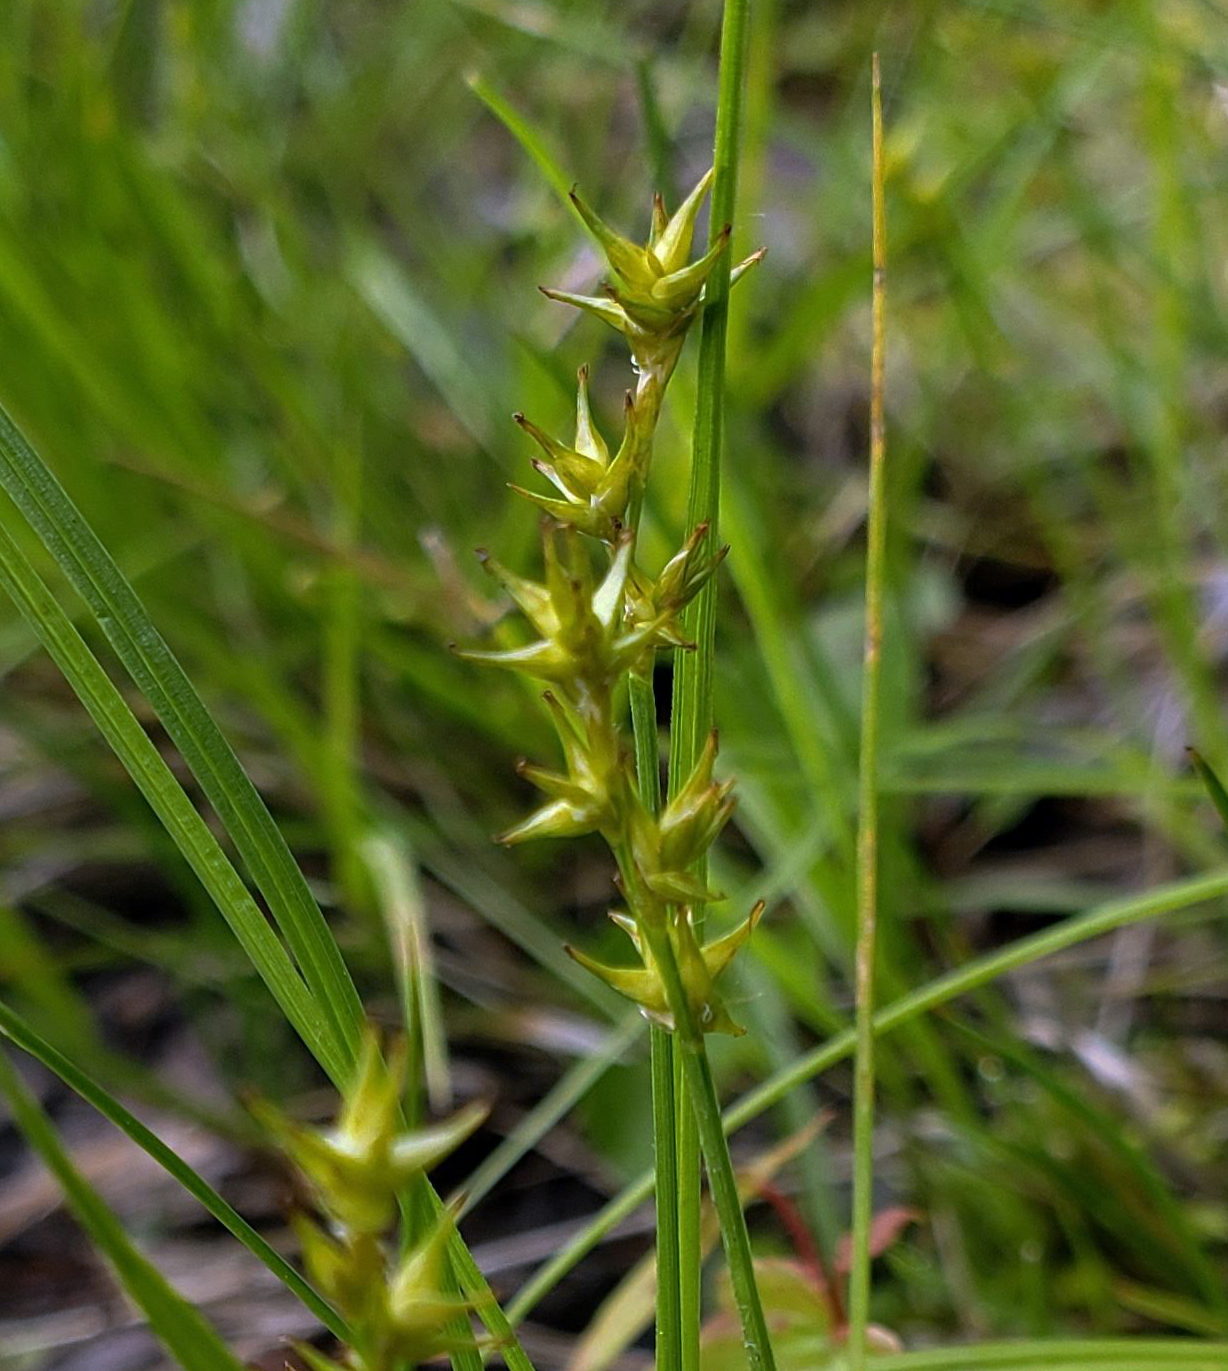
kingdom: Plantae
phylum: Tracheophyta
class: Liliopsida
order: Poales
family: Cyperaceae
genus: Carex
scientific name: Carex echinata
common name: Star sedge
